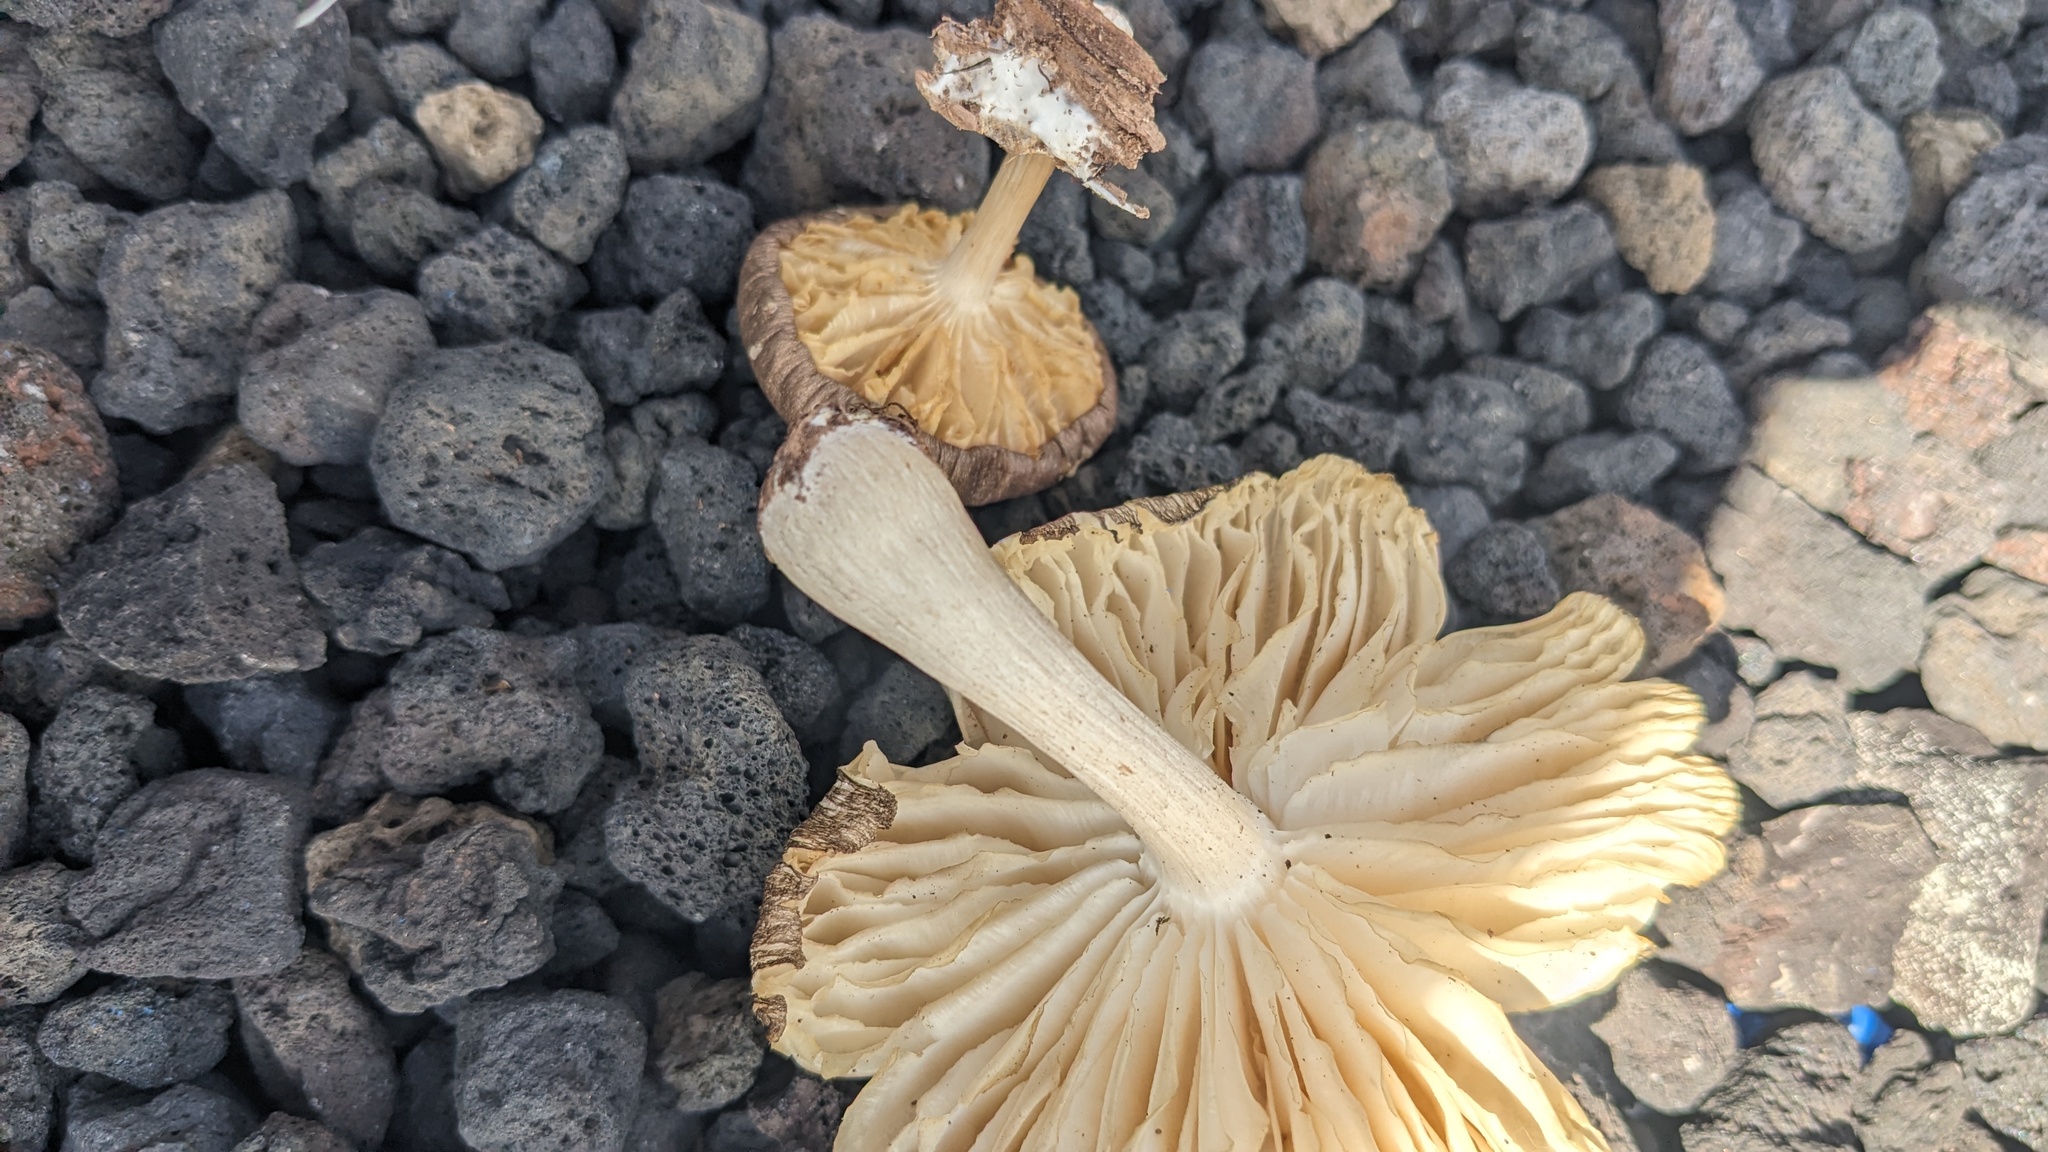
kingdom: Fungi
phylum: Basidiomycota
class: Agaricomycetes
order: Agaricales
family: Tricholomataceae
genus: Megacollybia
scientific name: Megacollybia clitocyboidea
